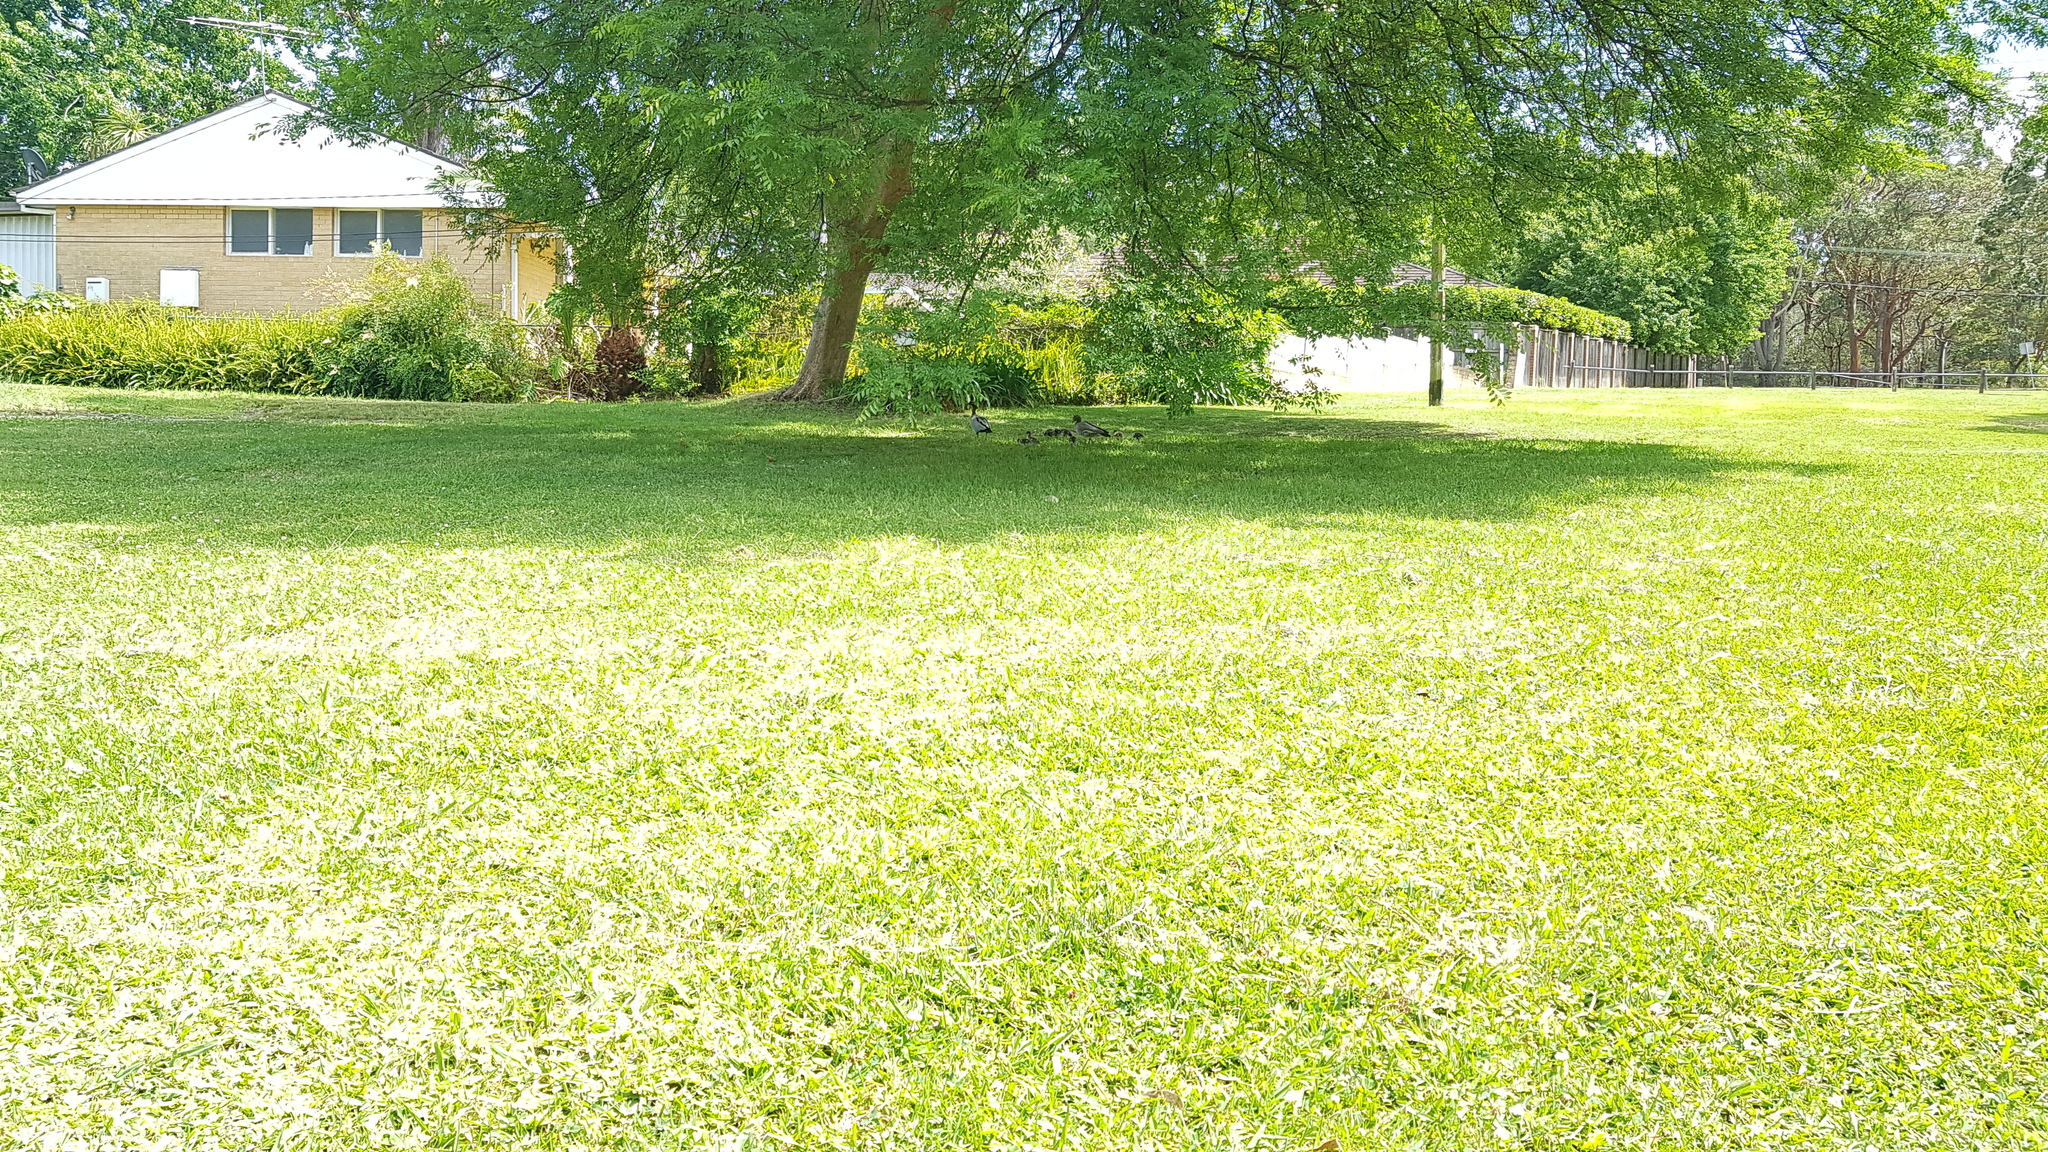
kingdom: Animalia
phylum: Chordata
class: Aves
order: Anseriformes
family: Anatidae
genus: Chenonetta
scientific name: Chenonetta jubata
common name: Maned duck
